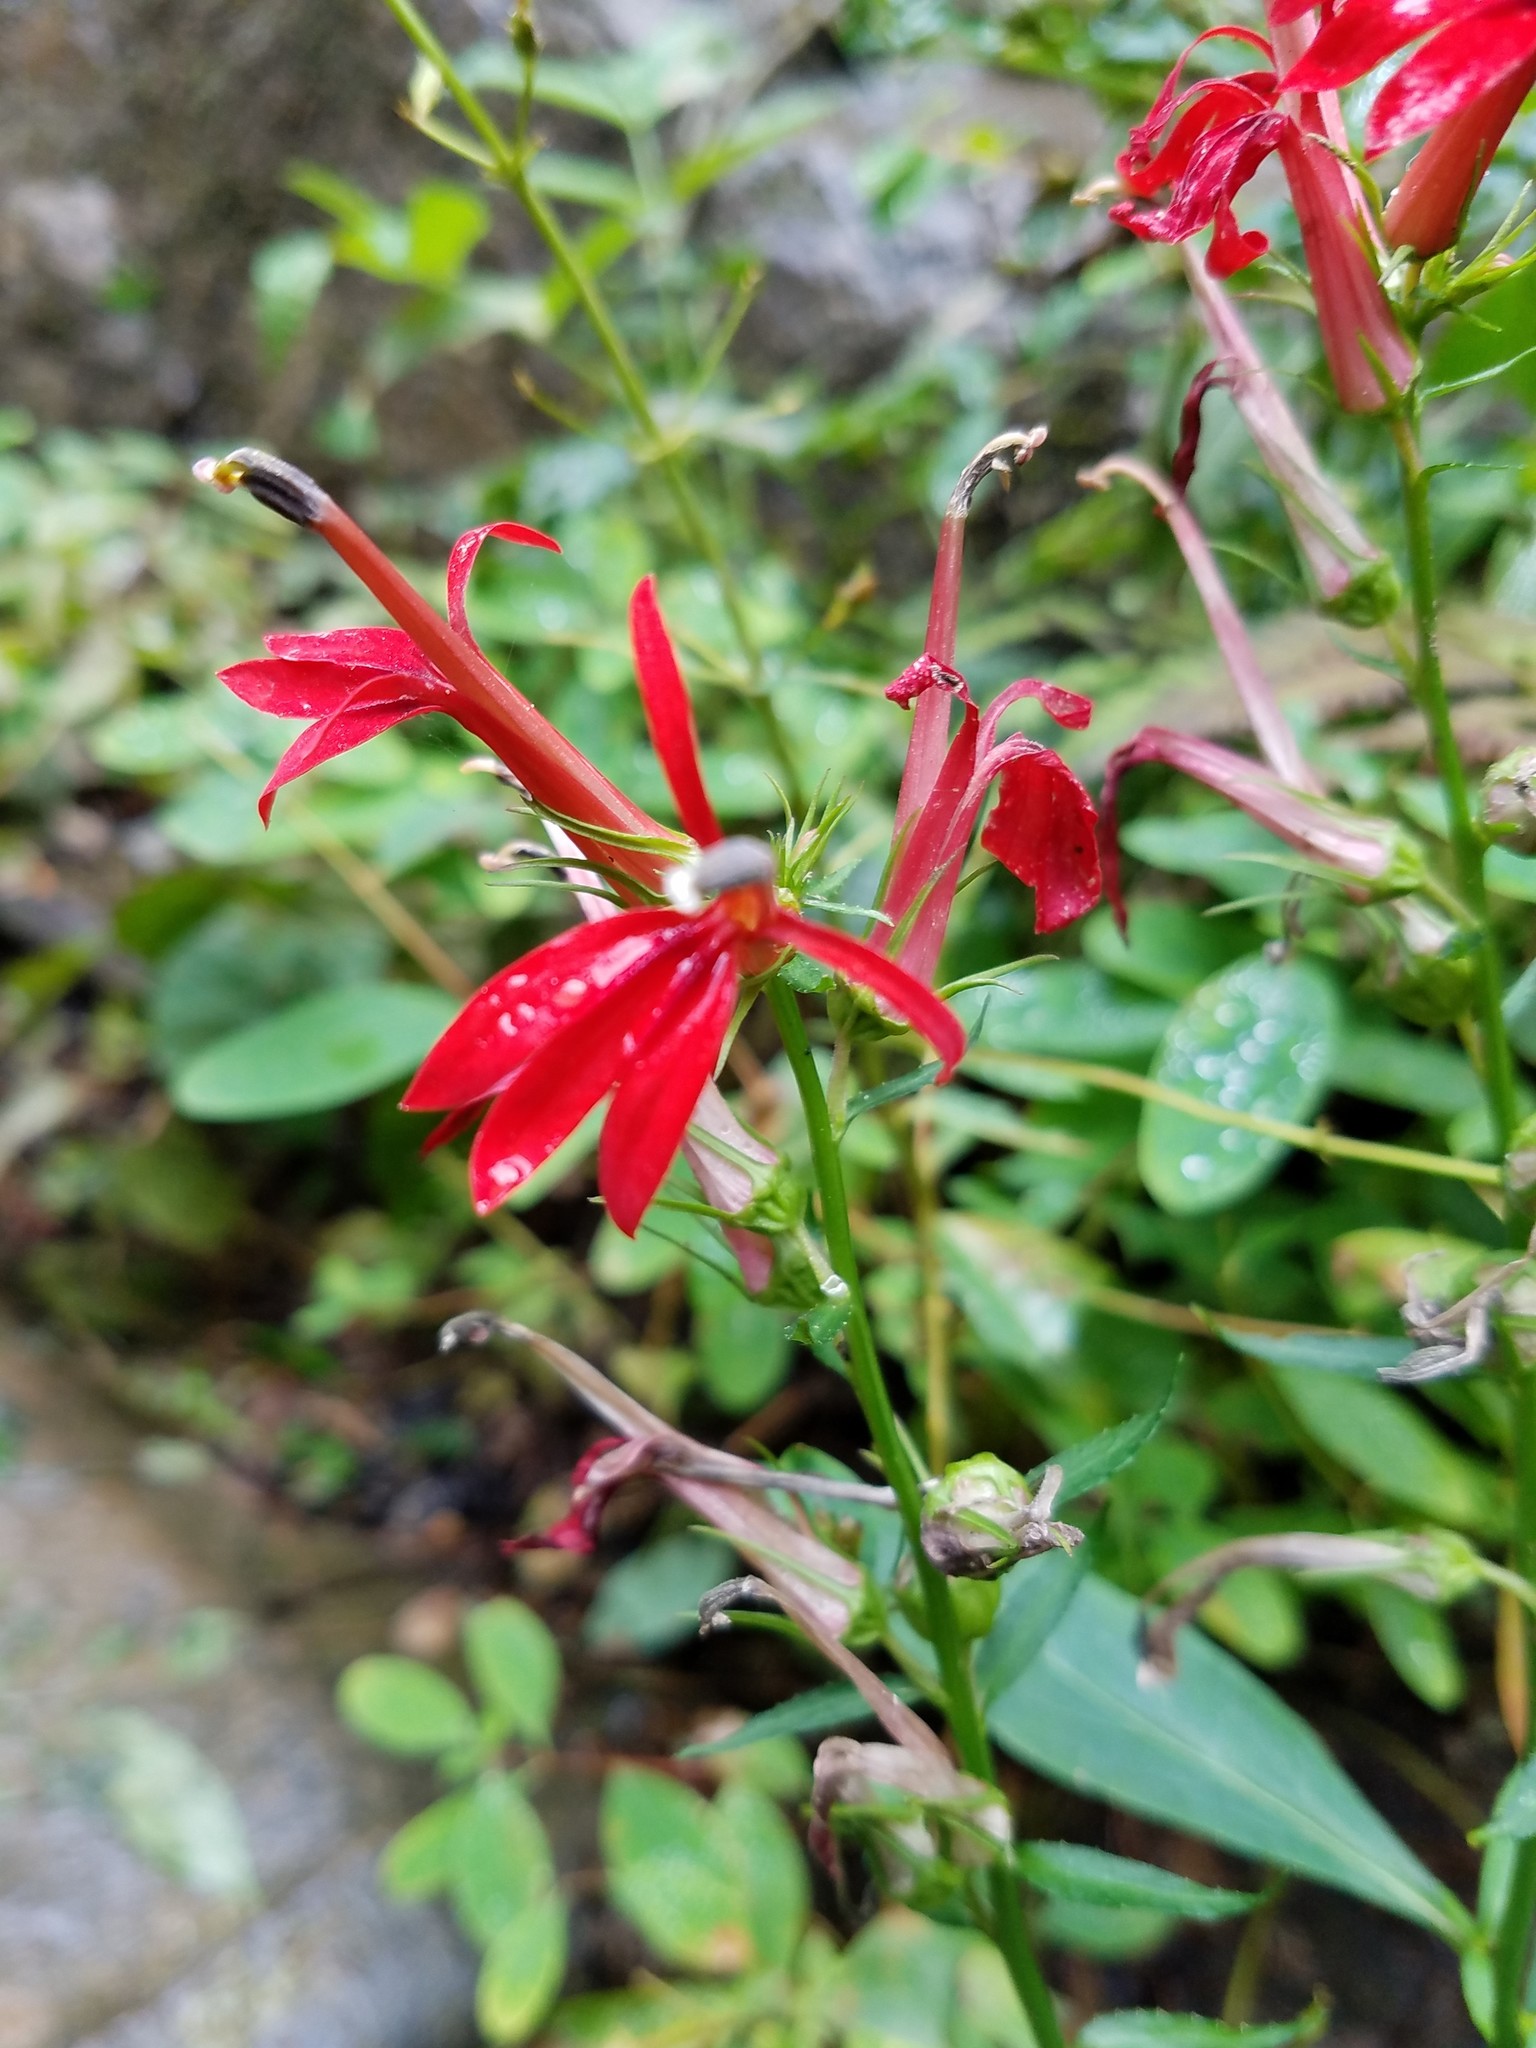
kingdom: Plantae
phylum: Tracheophyta
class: Magnoliopsida
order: Asterales
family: Campanulaceae
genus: Lobelia
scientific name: Lobelia cardinalis
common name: Cardinal flower
